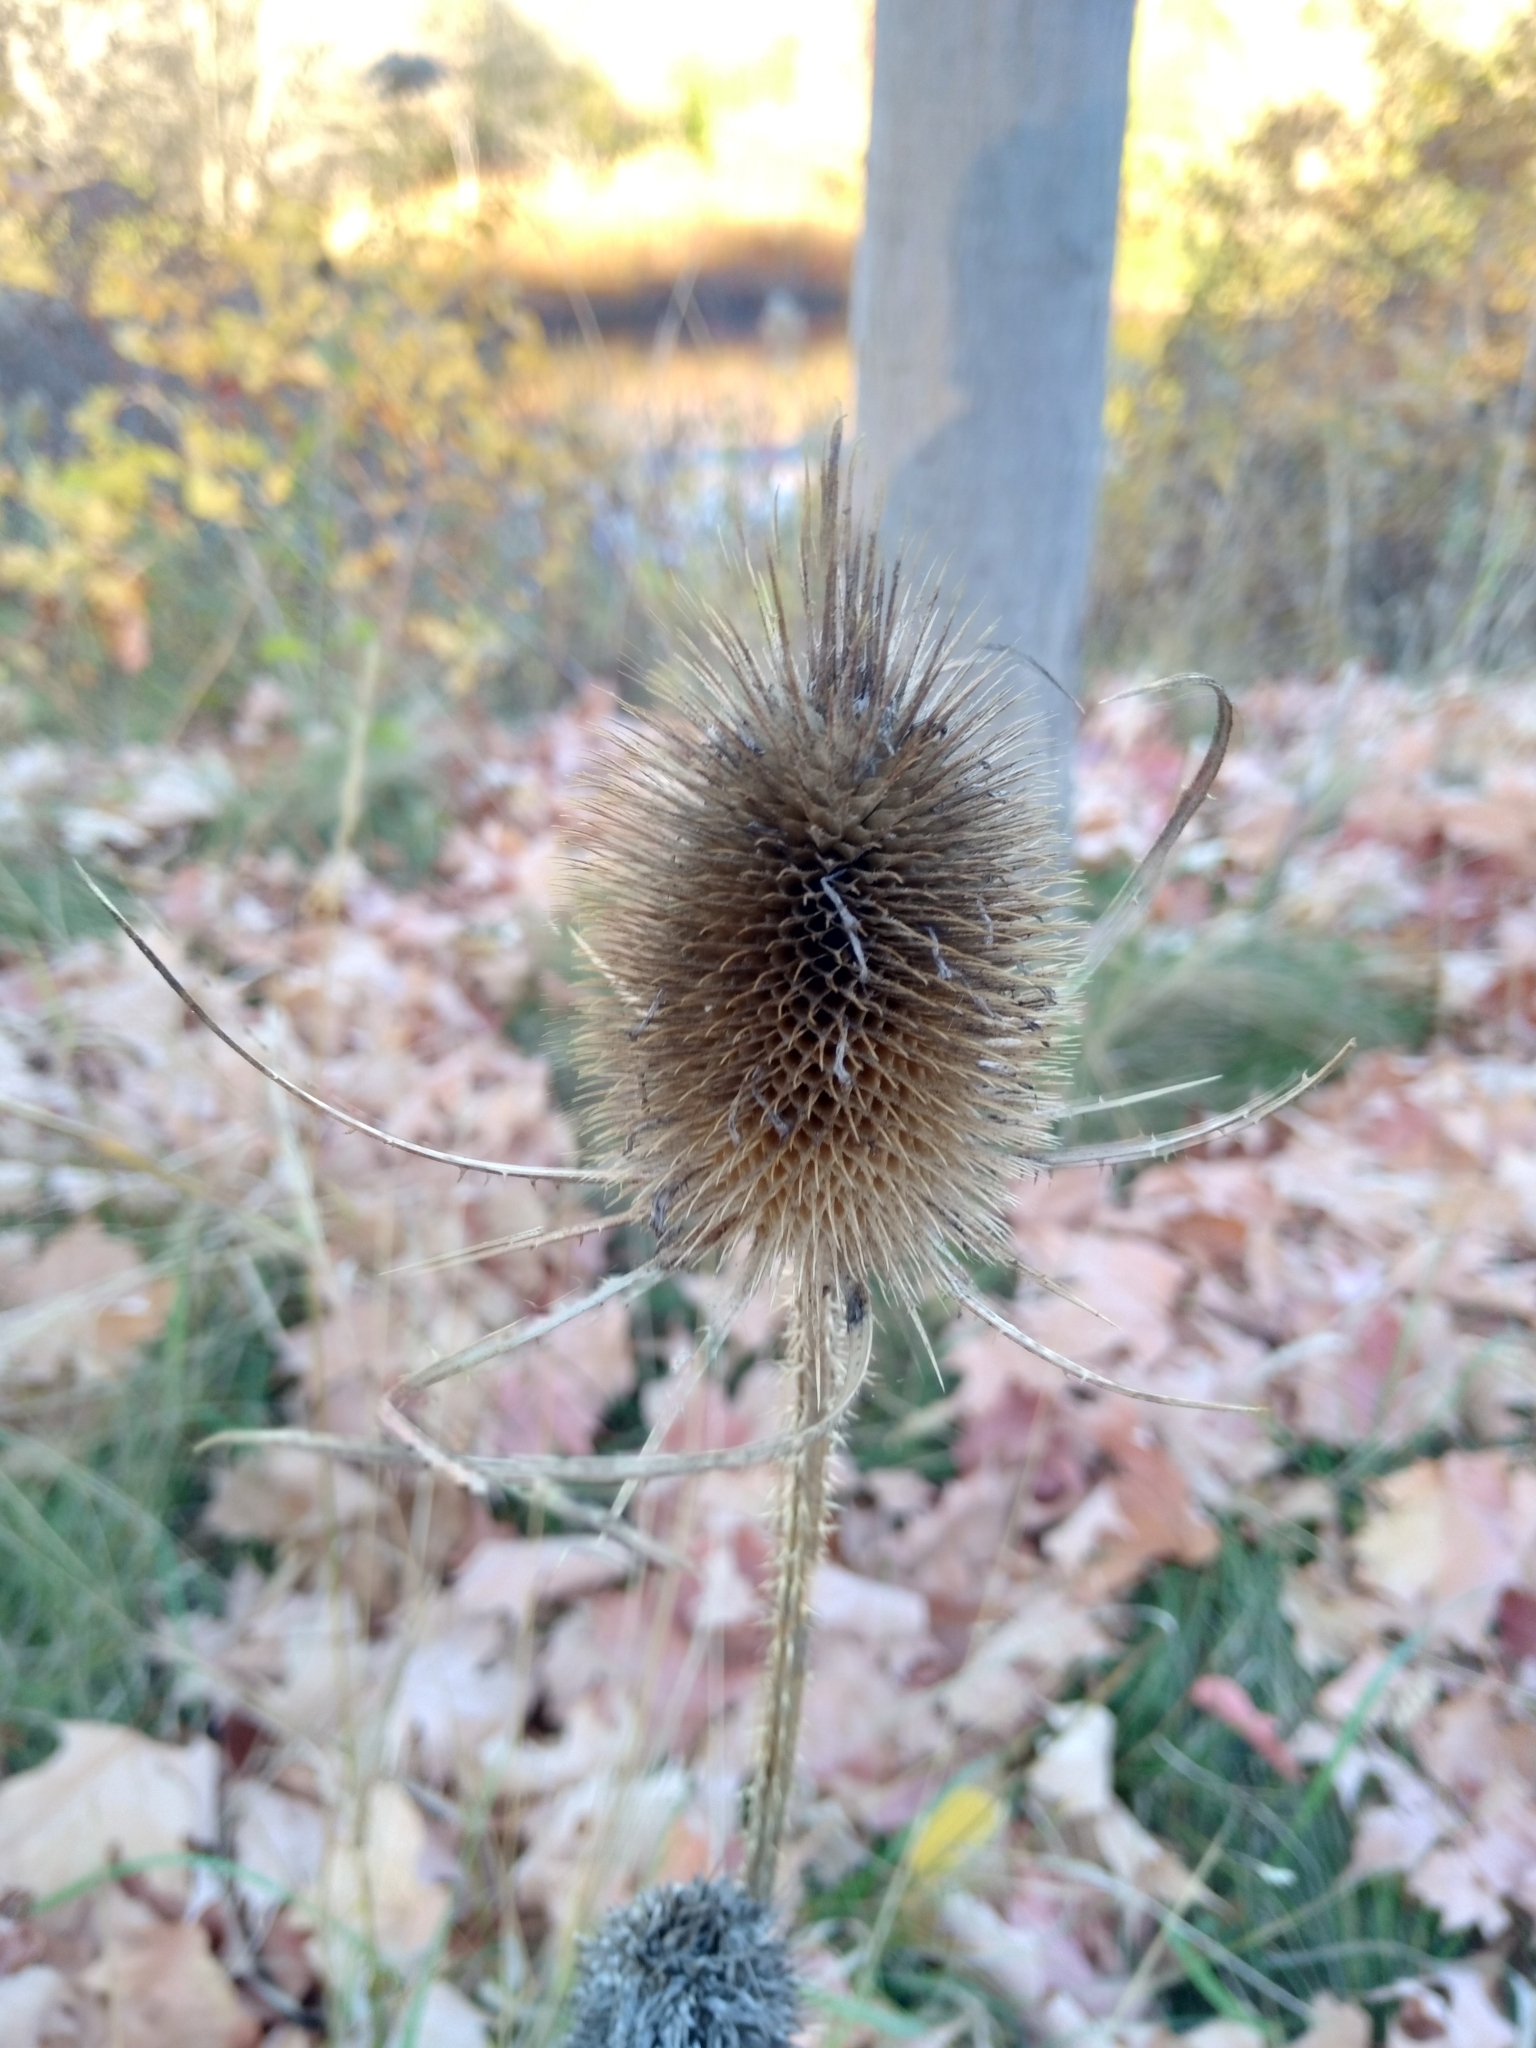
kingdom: Plantae
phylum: Tracheophyta
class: Magnoliopsida
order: Dipsacales
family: Caprifoliaceae
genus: Dipsacus
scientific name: Dipsacus fullonum
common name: Teasel
